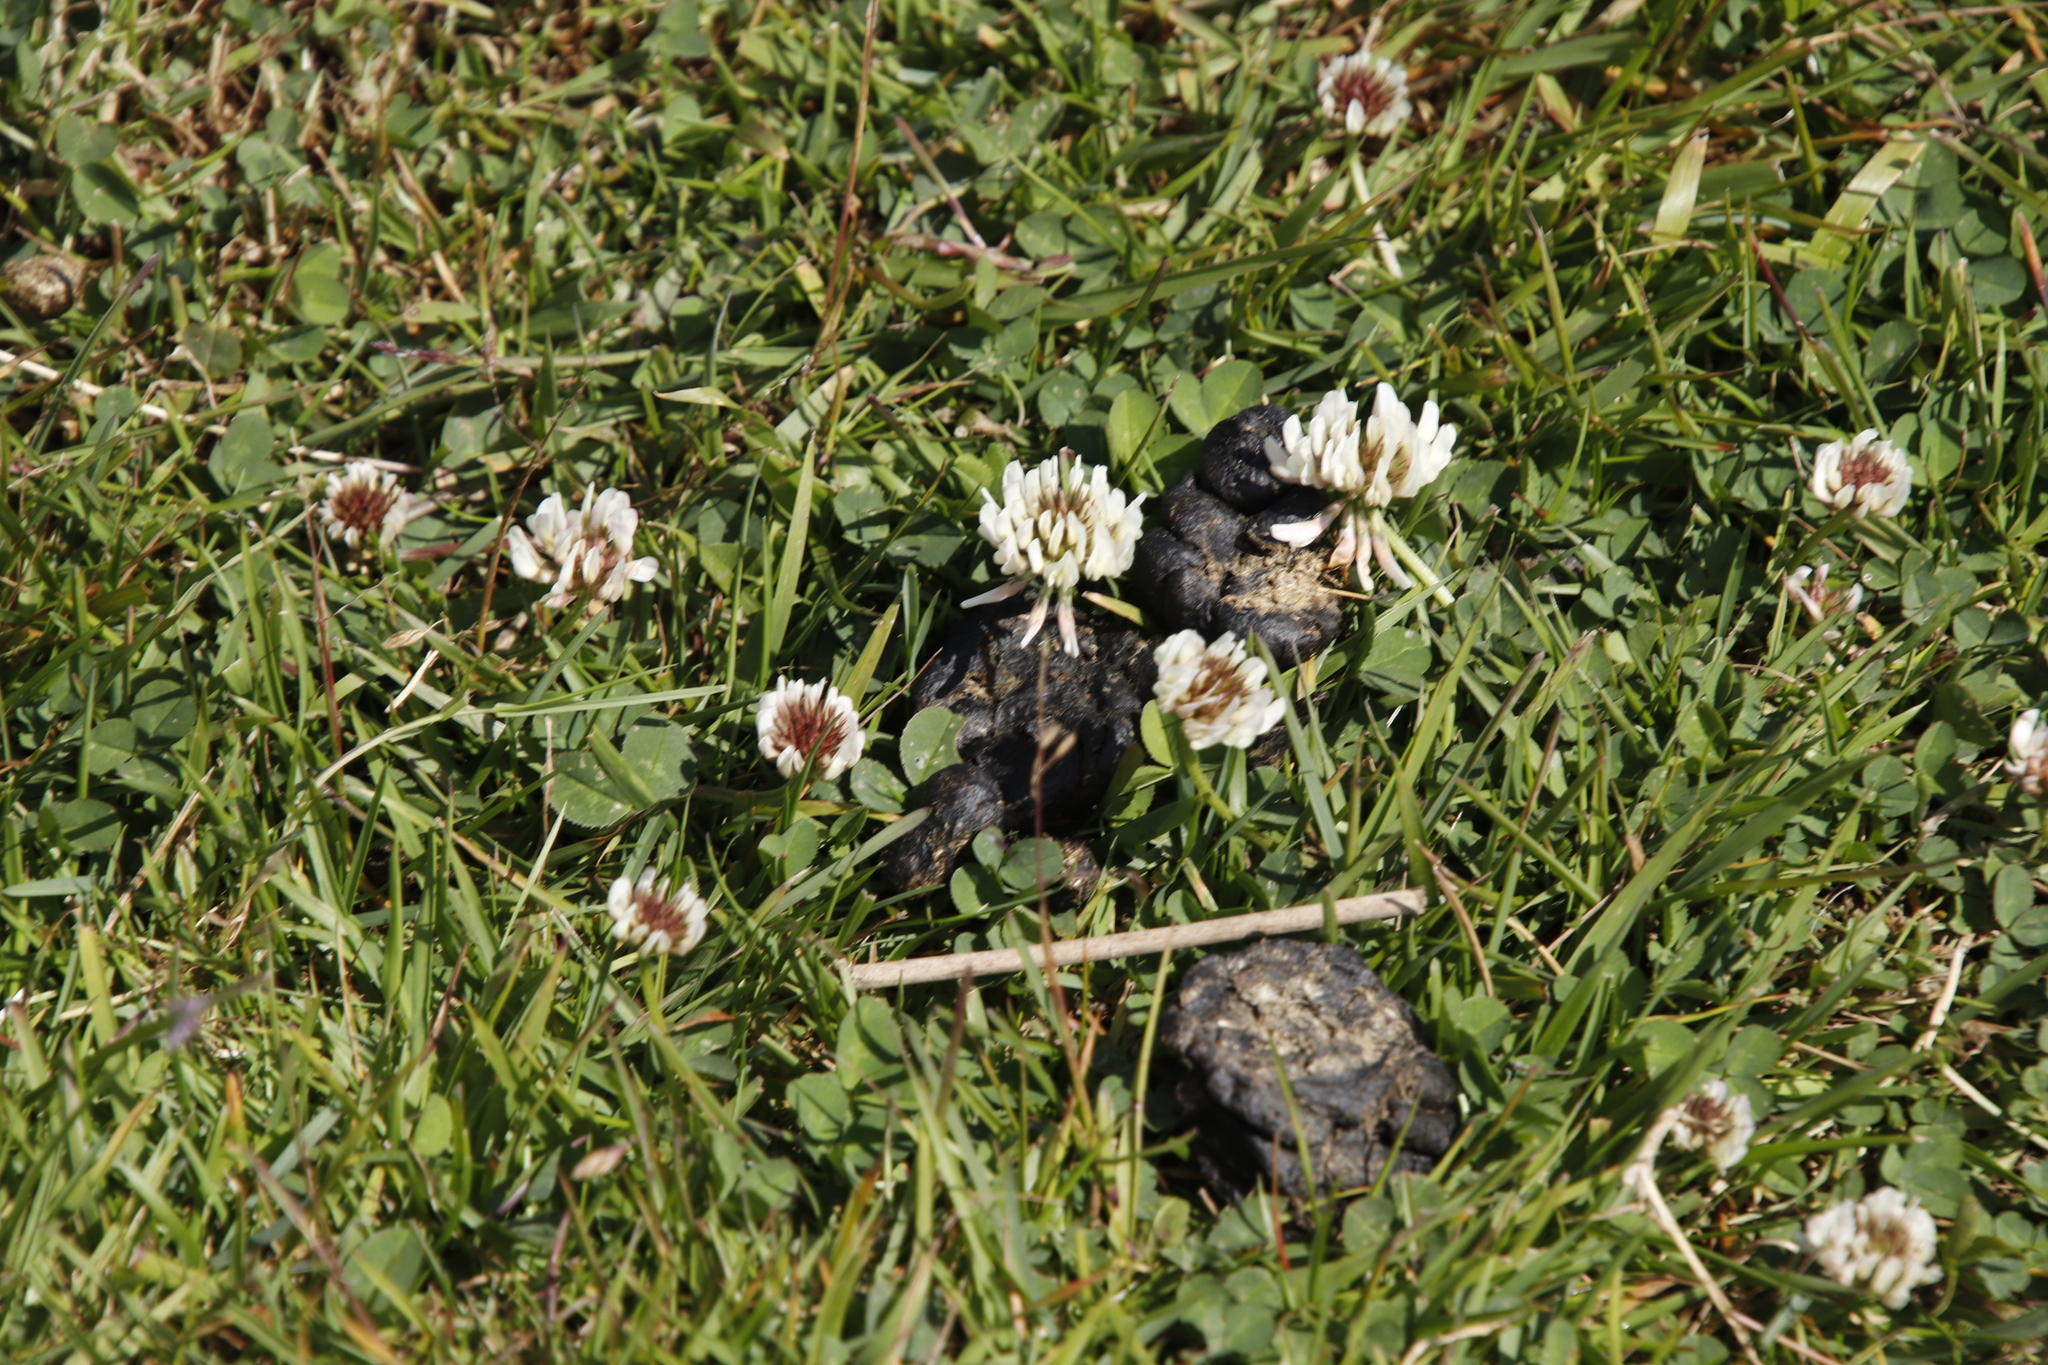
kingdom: Plantae
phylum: Tracheophyta
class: Magnoliopsida
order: Fabales
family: Fabaceae
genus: Trifolium
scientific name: Trifolium repens
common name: White clover
